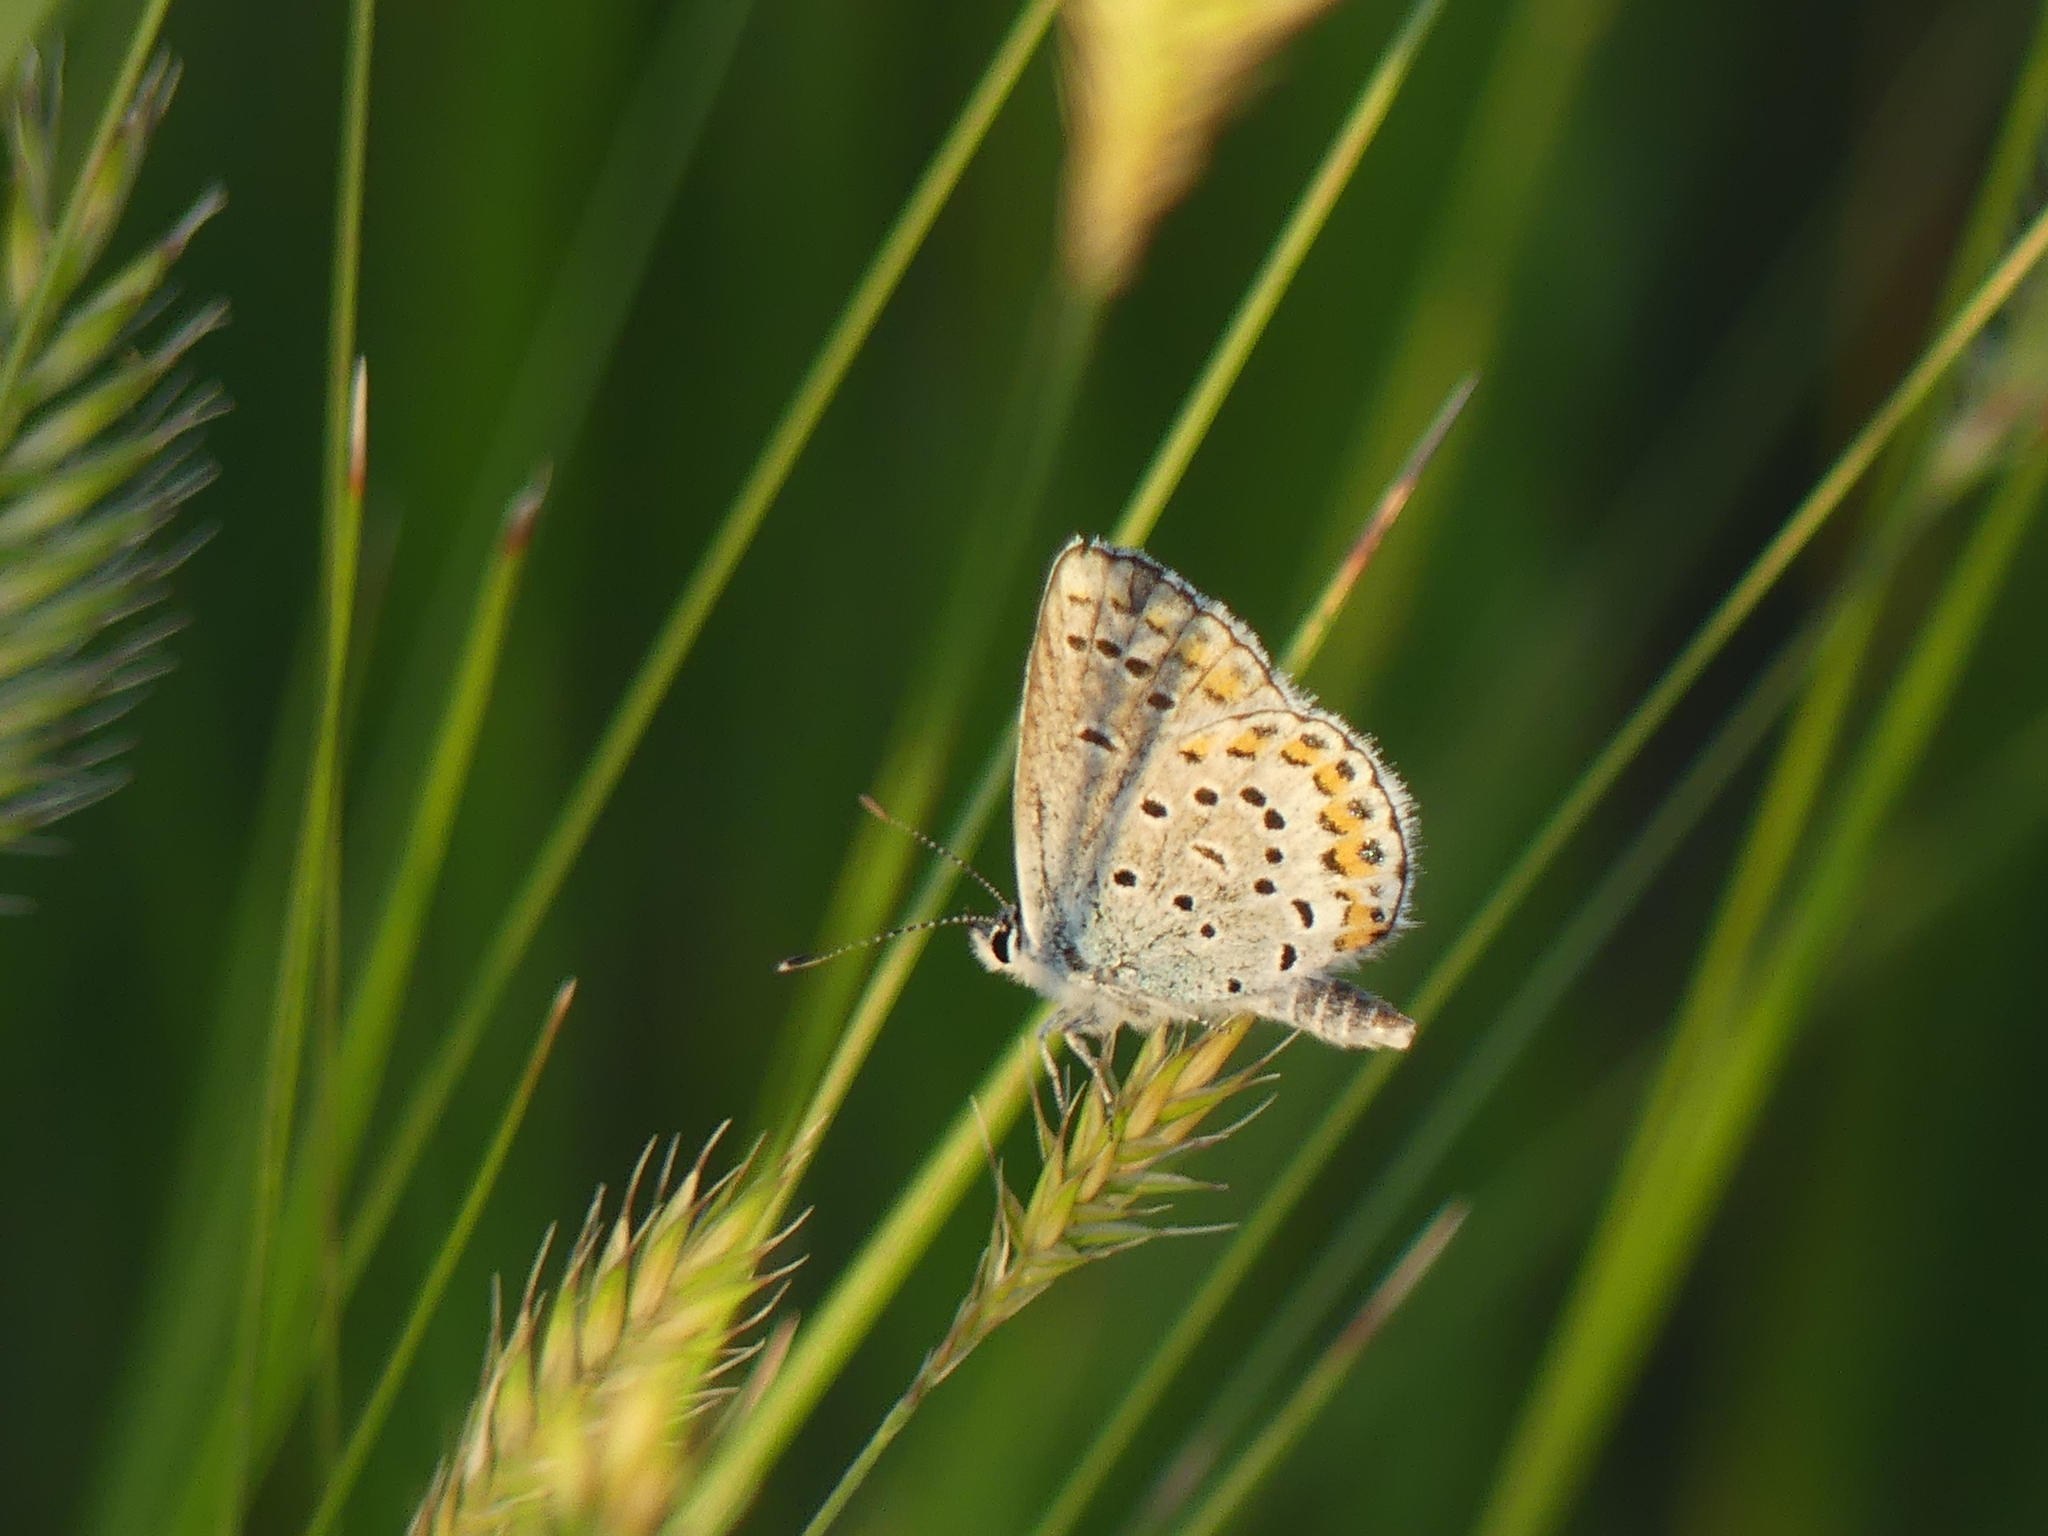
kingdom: Animalia
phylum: Arthropoda
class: Insecta
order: Lepidoptera
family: Lycaenidae
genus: Lycaeides
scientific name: Lycaeides melissa
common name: Melissa blue
